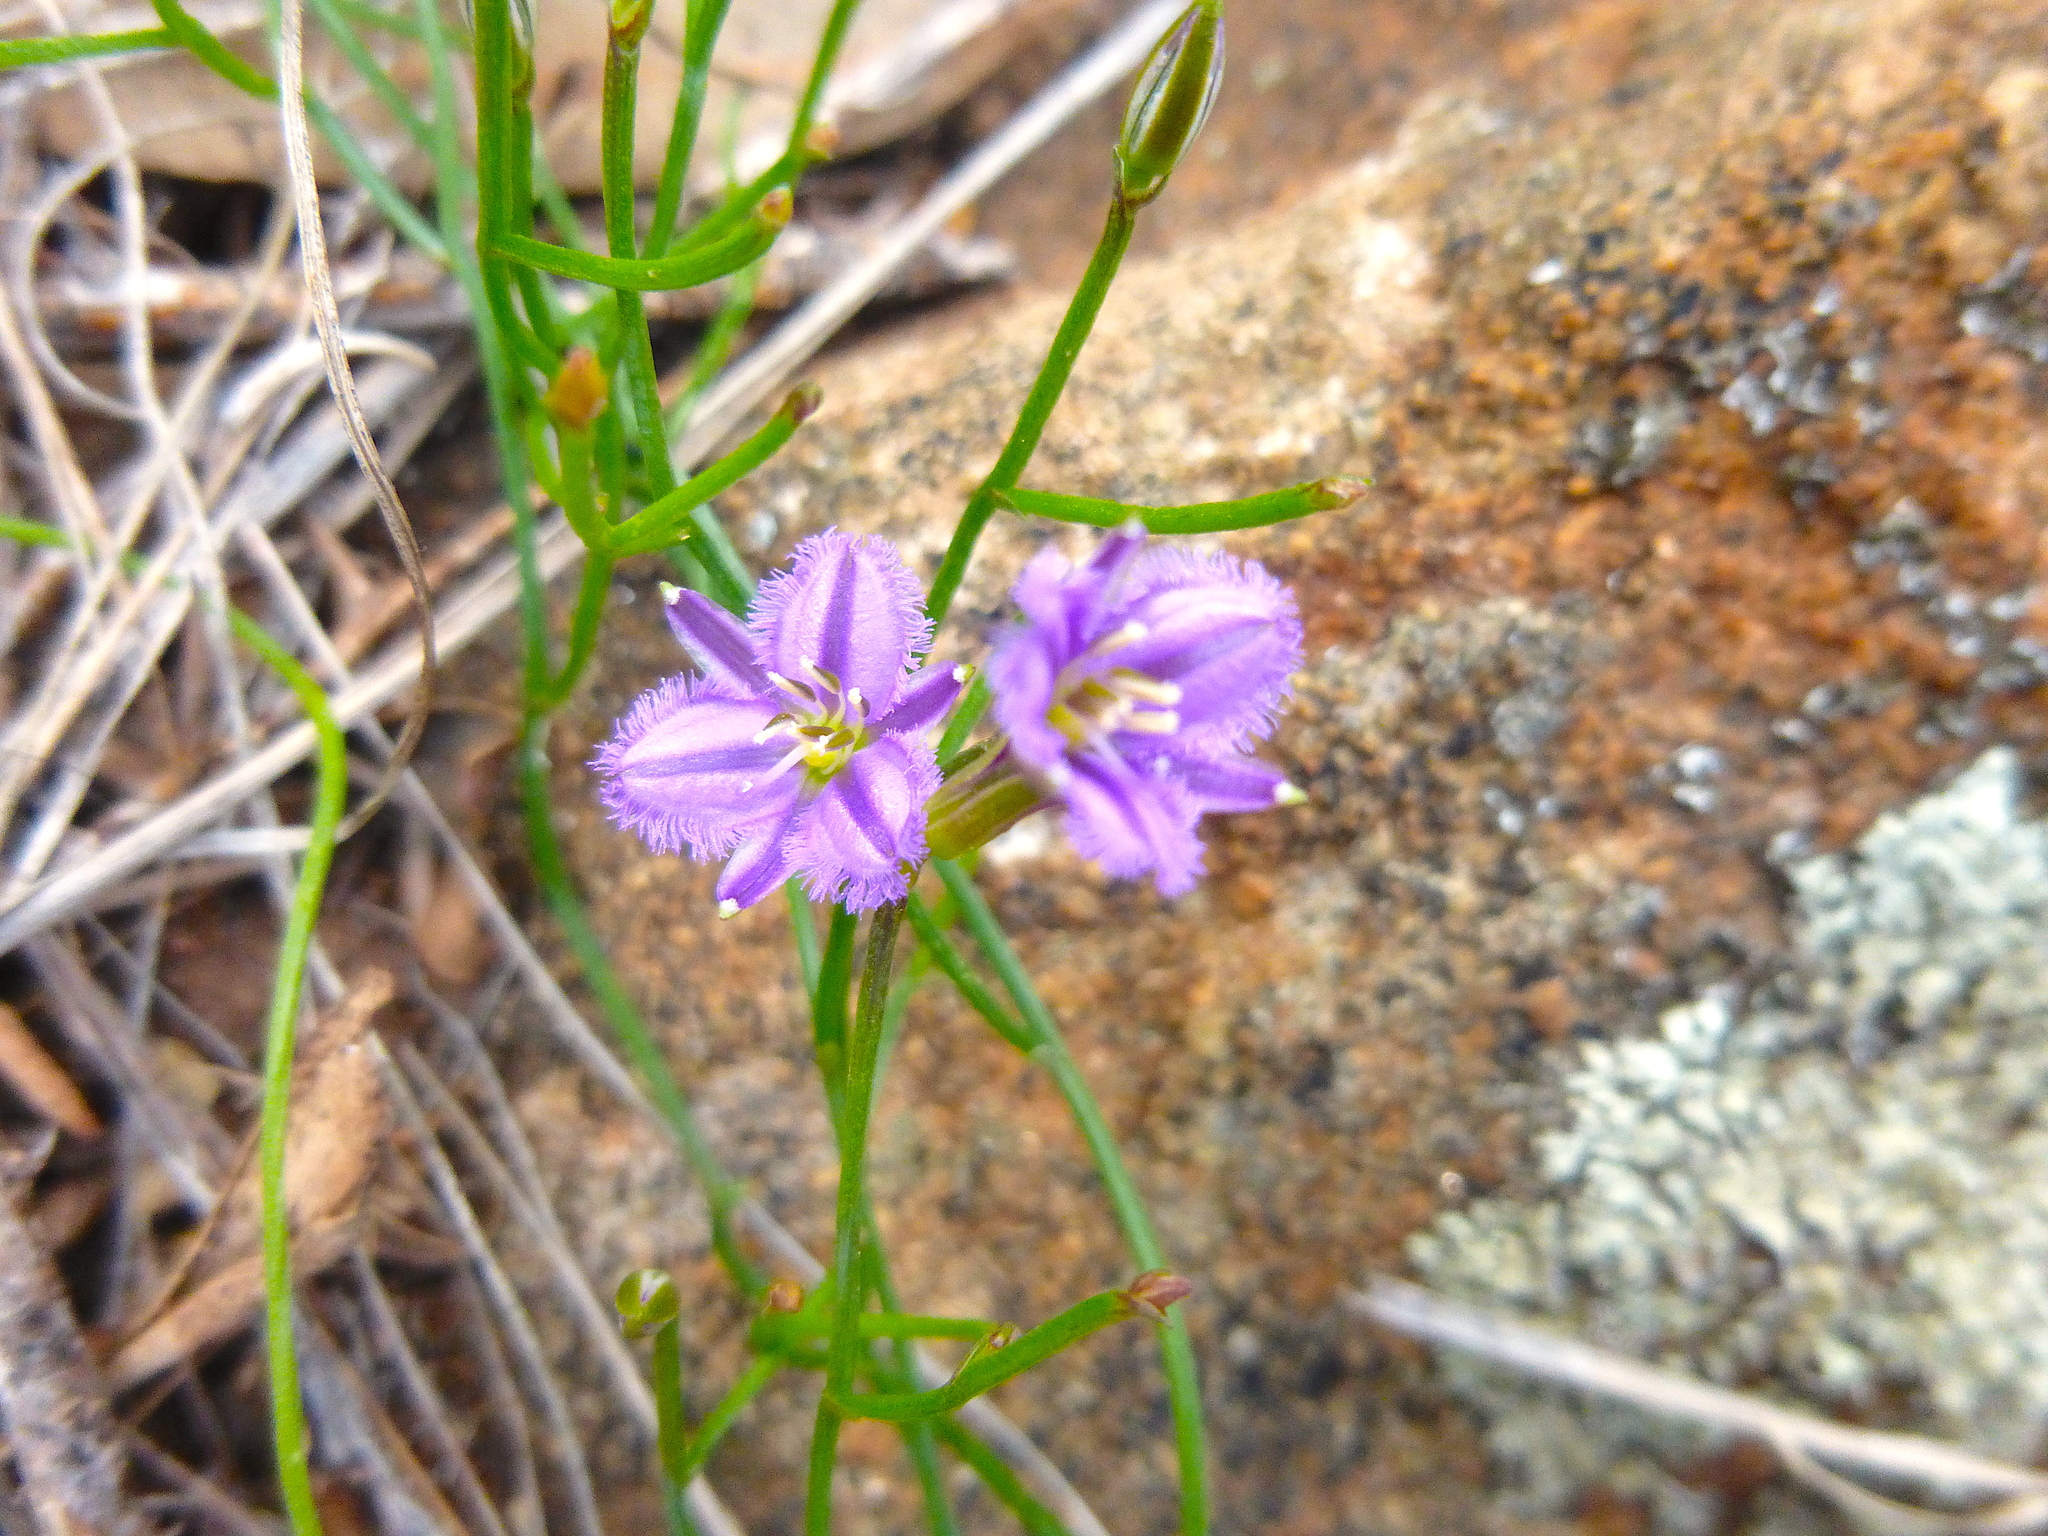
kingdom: Plantae
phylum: Tracheophyta
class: Liliopsida
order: Asparagales
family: Asparagaceae
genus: Thysanotus
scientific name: Thysanotus patersonii
